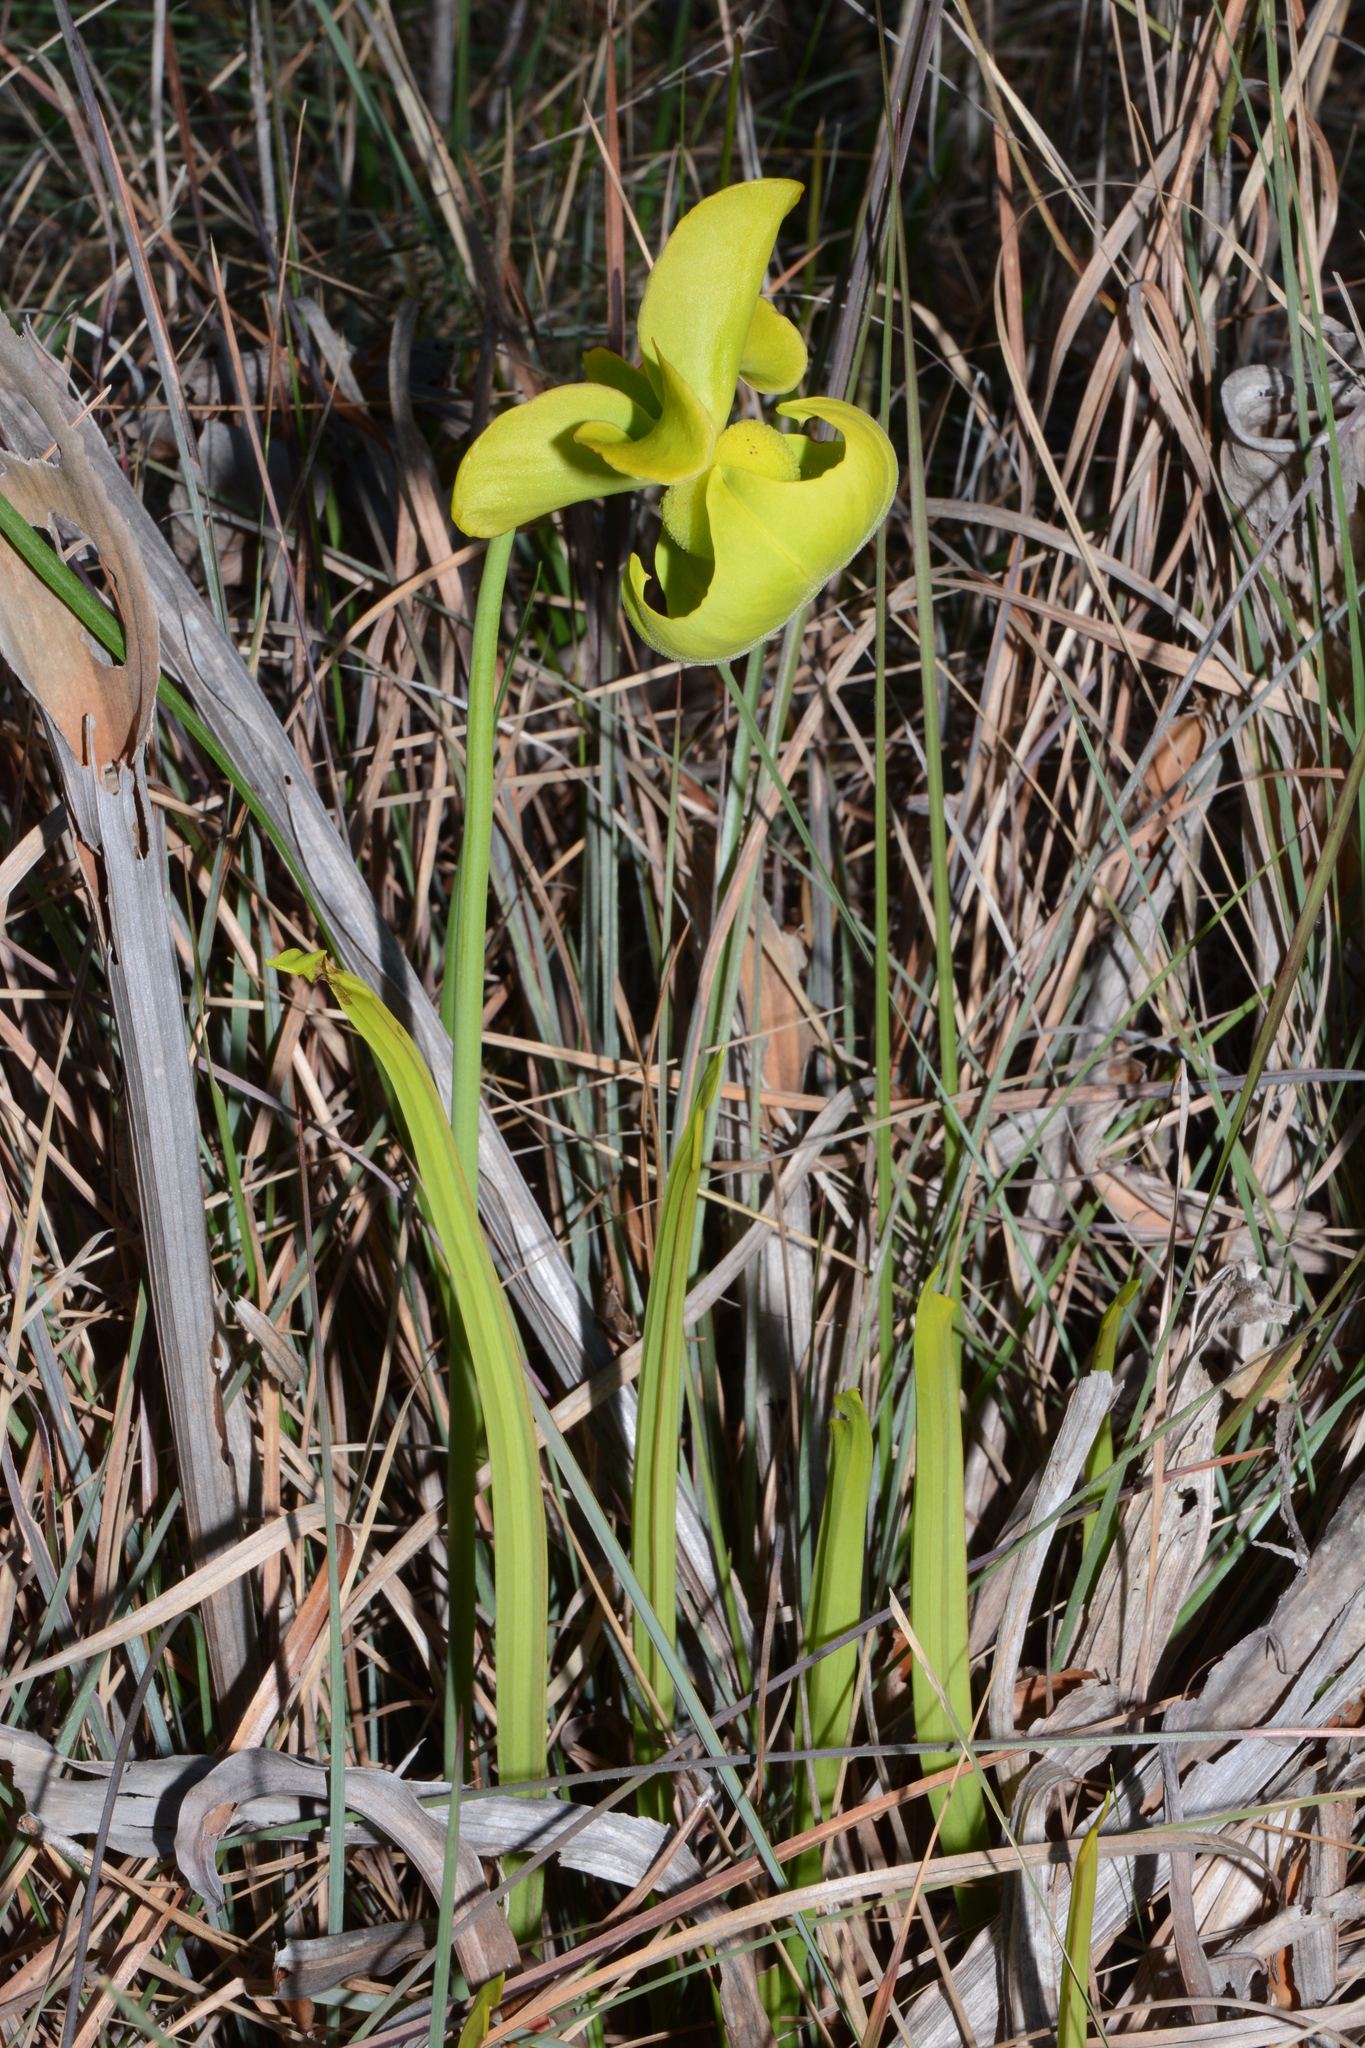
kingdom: Plantae
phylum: Tracheophyta
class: Magnoliopsida
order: Ericales
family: Sarraceniaceae
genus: Sarracenia
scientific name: Sarracenia flava
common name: Trumpets
